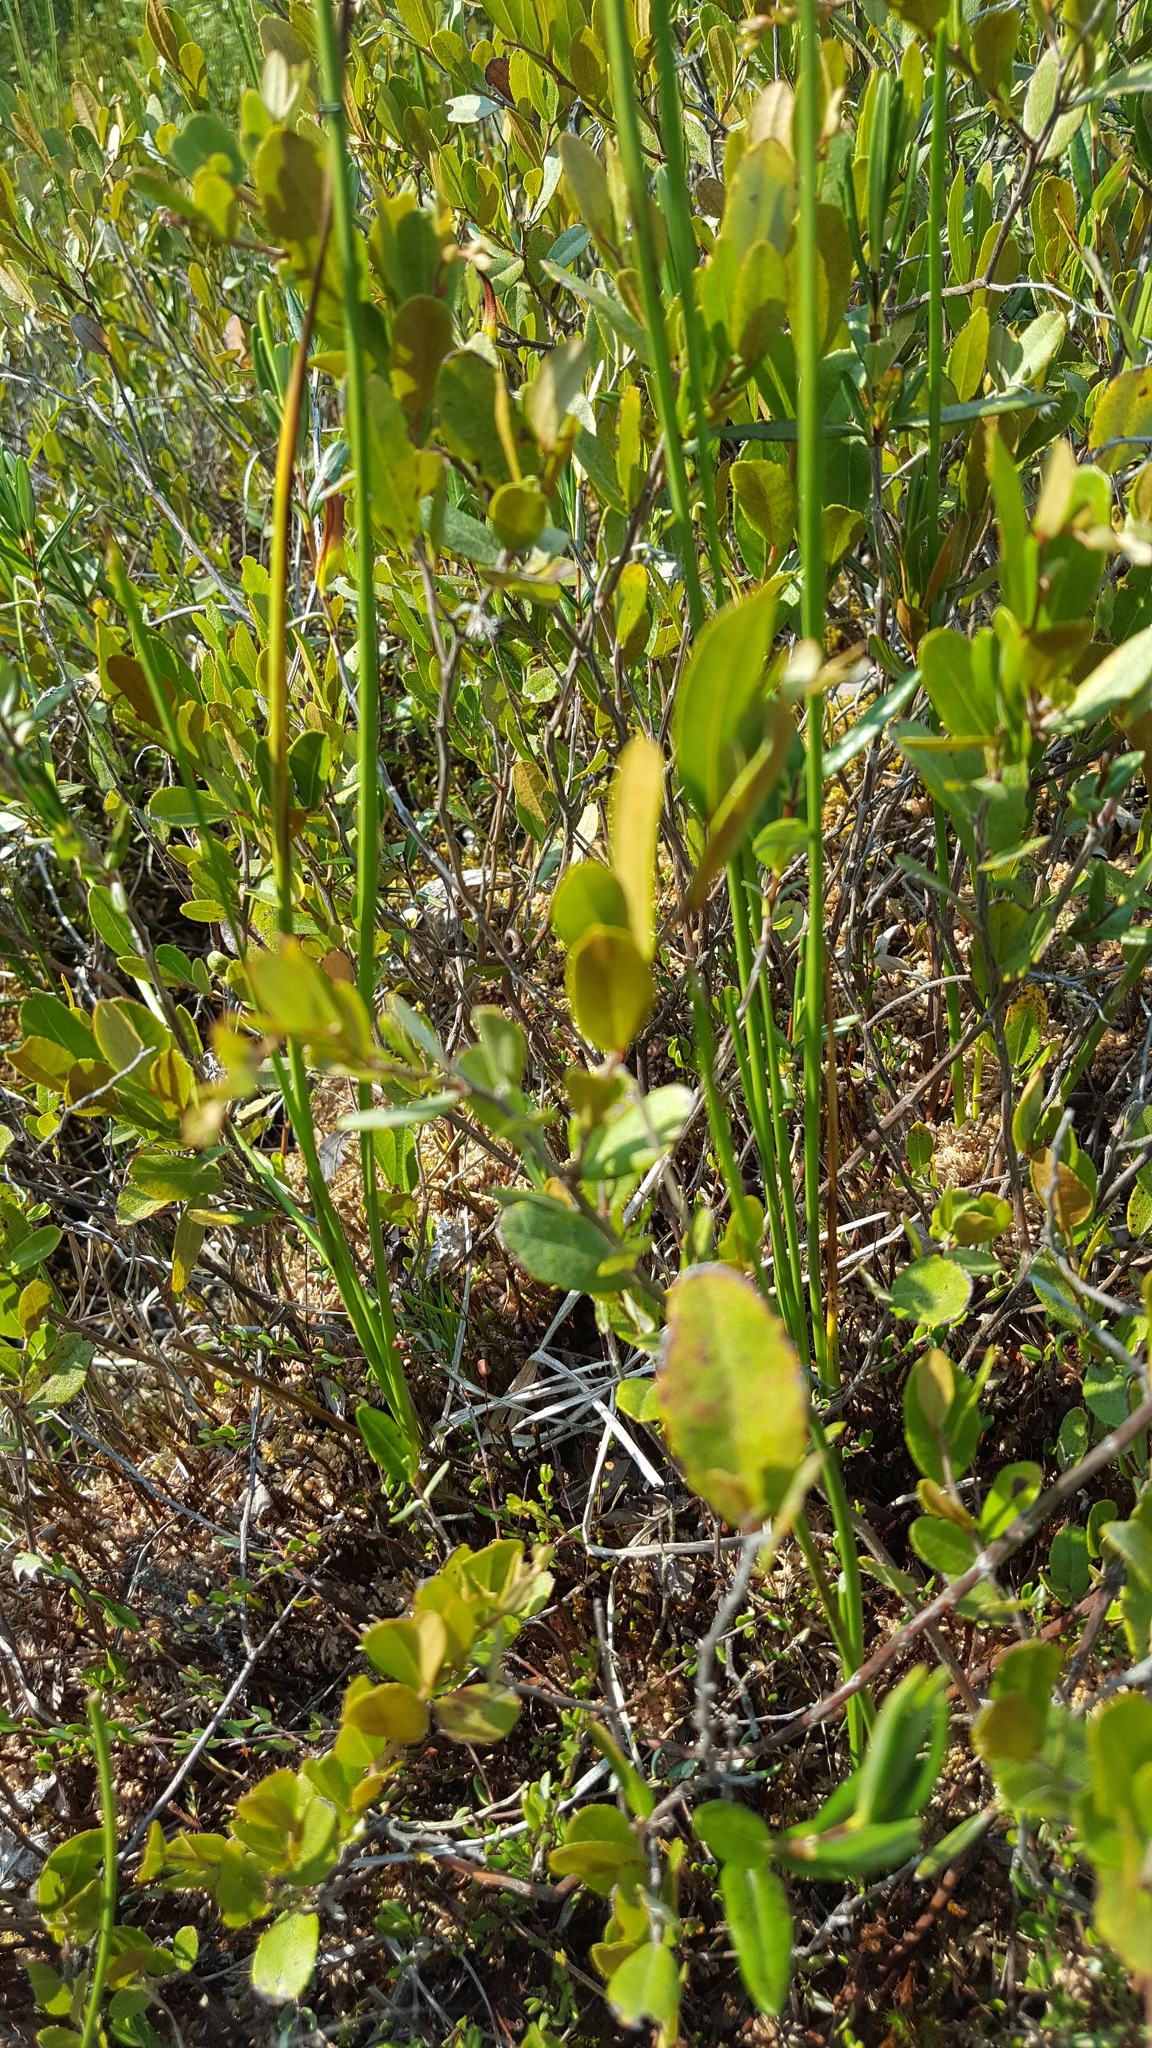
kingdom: Plantae
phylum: Tracheophyta
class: Magnoliopsida
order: Ericales
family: Ericaceae
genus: Chamaedaphne
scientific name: Chamaedaphne calyculata
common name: Leatherleaf
